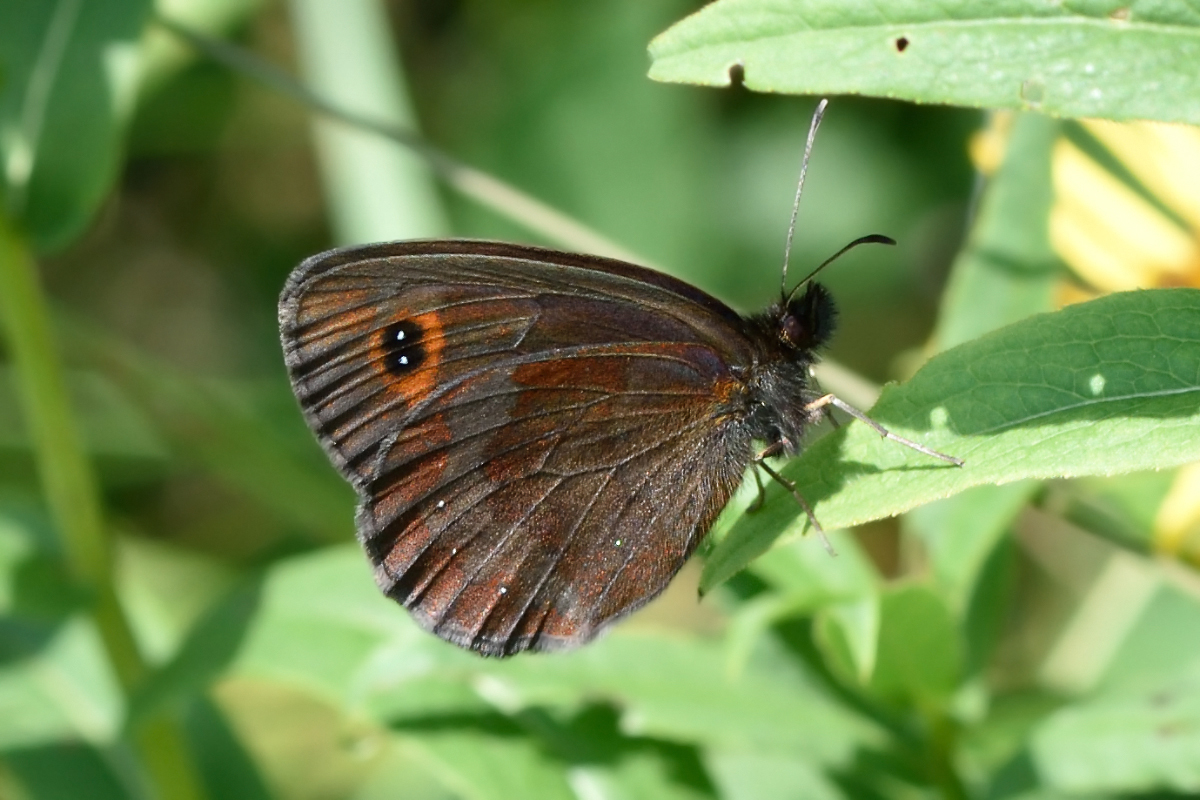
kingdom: Animalia
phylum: Arthropoda
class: Insecta
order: Lepidoptera
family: Nymphalidae
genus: Erebia
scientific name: Erebia aethiops
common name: Scotch argus
